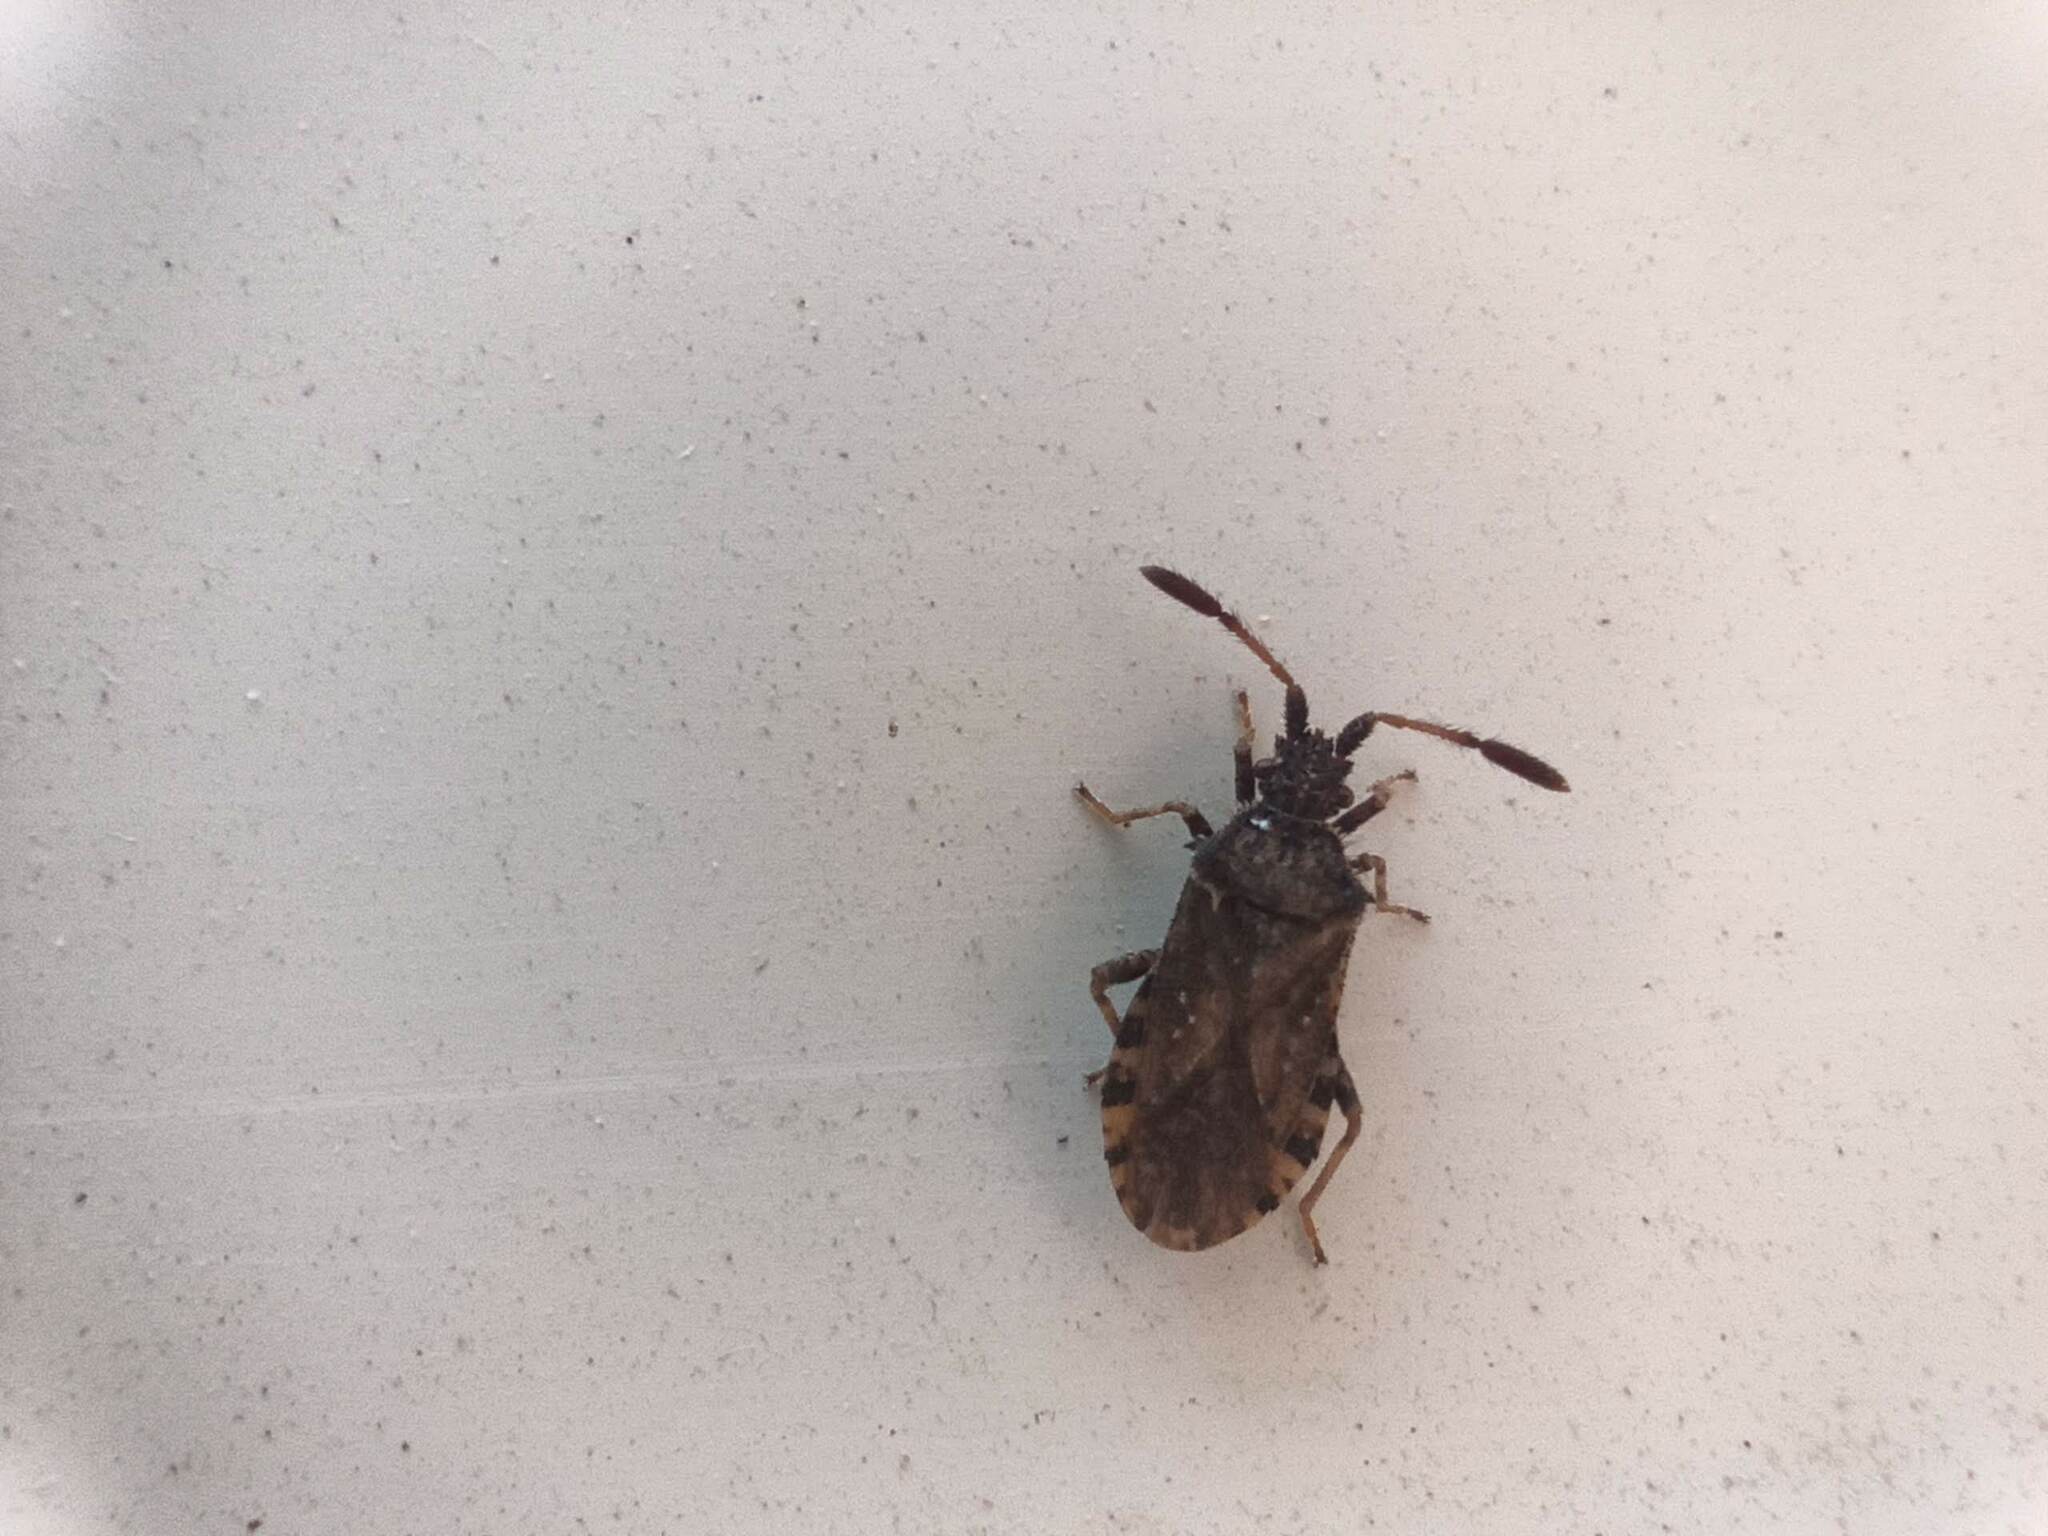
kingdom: Animalia
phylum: Arthropoda
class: Insecta
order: Hemiptera
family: Coreidae
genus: Strobilotoma
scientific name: Strobilotoma typhaecornis
